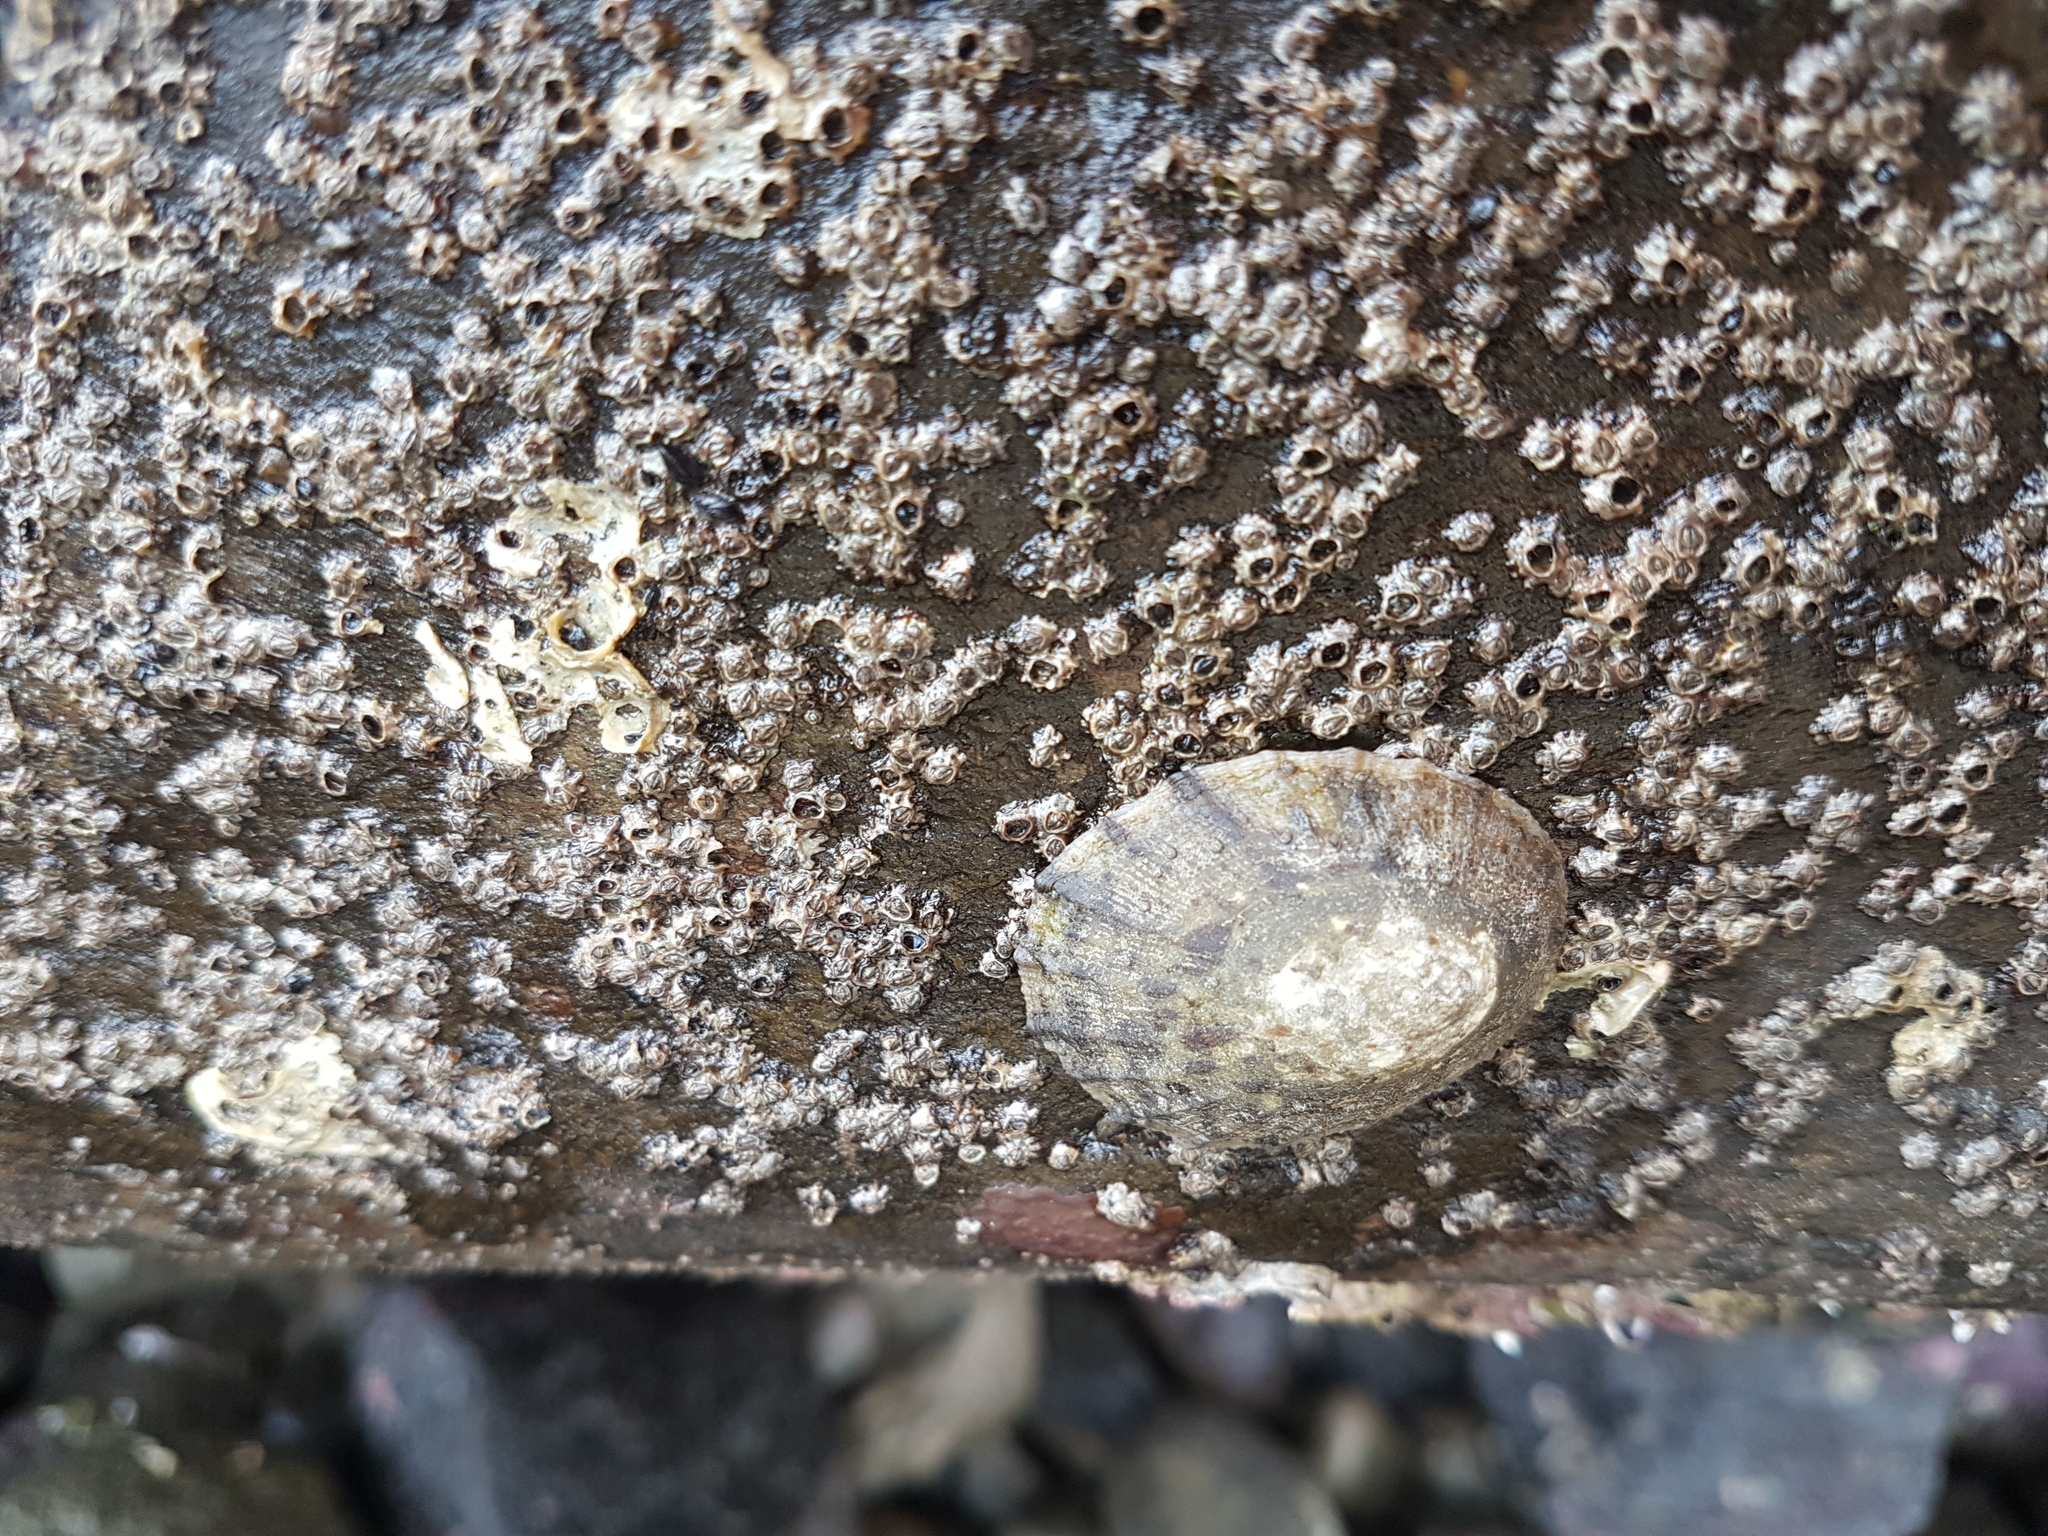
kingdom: Animalia
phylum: Mollusca
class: Gastropoda
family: Nacellidae
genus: Cellana
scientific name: Cellana radians
